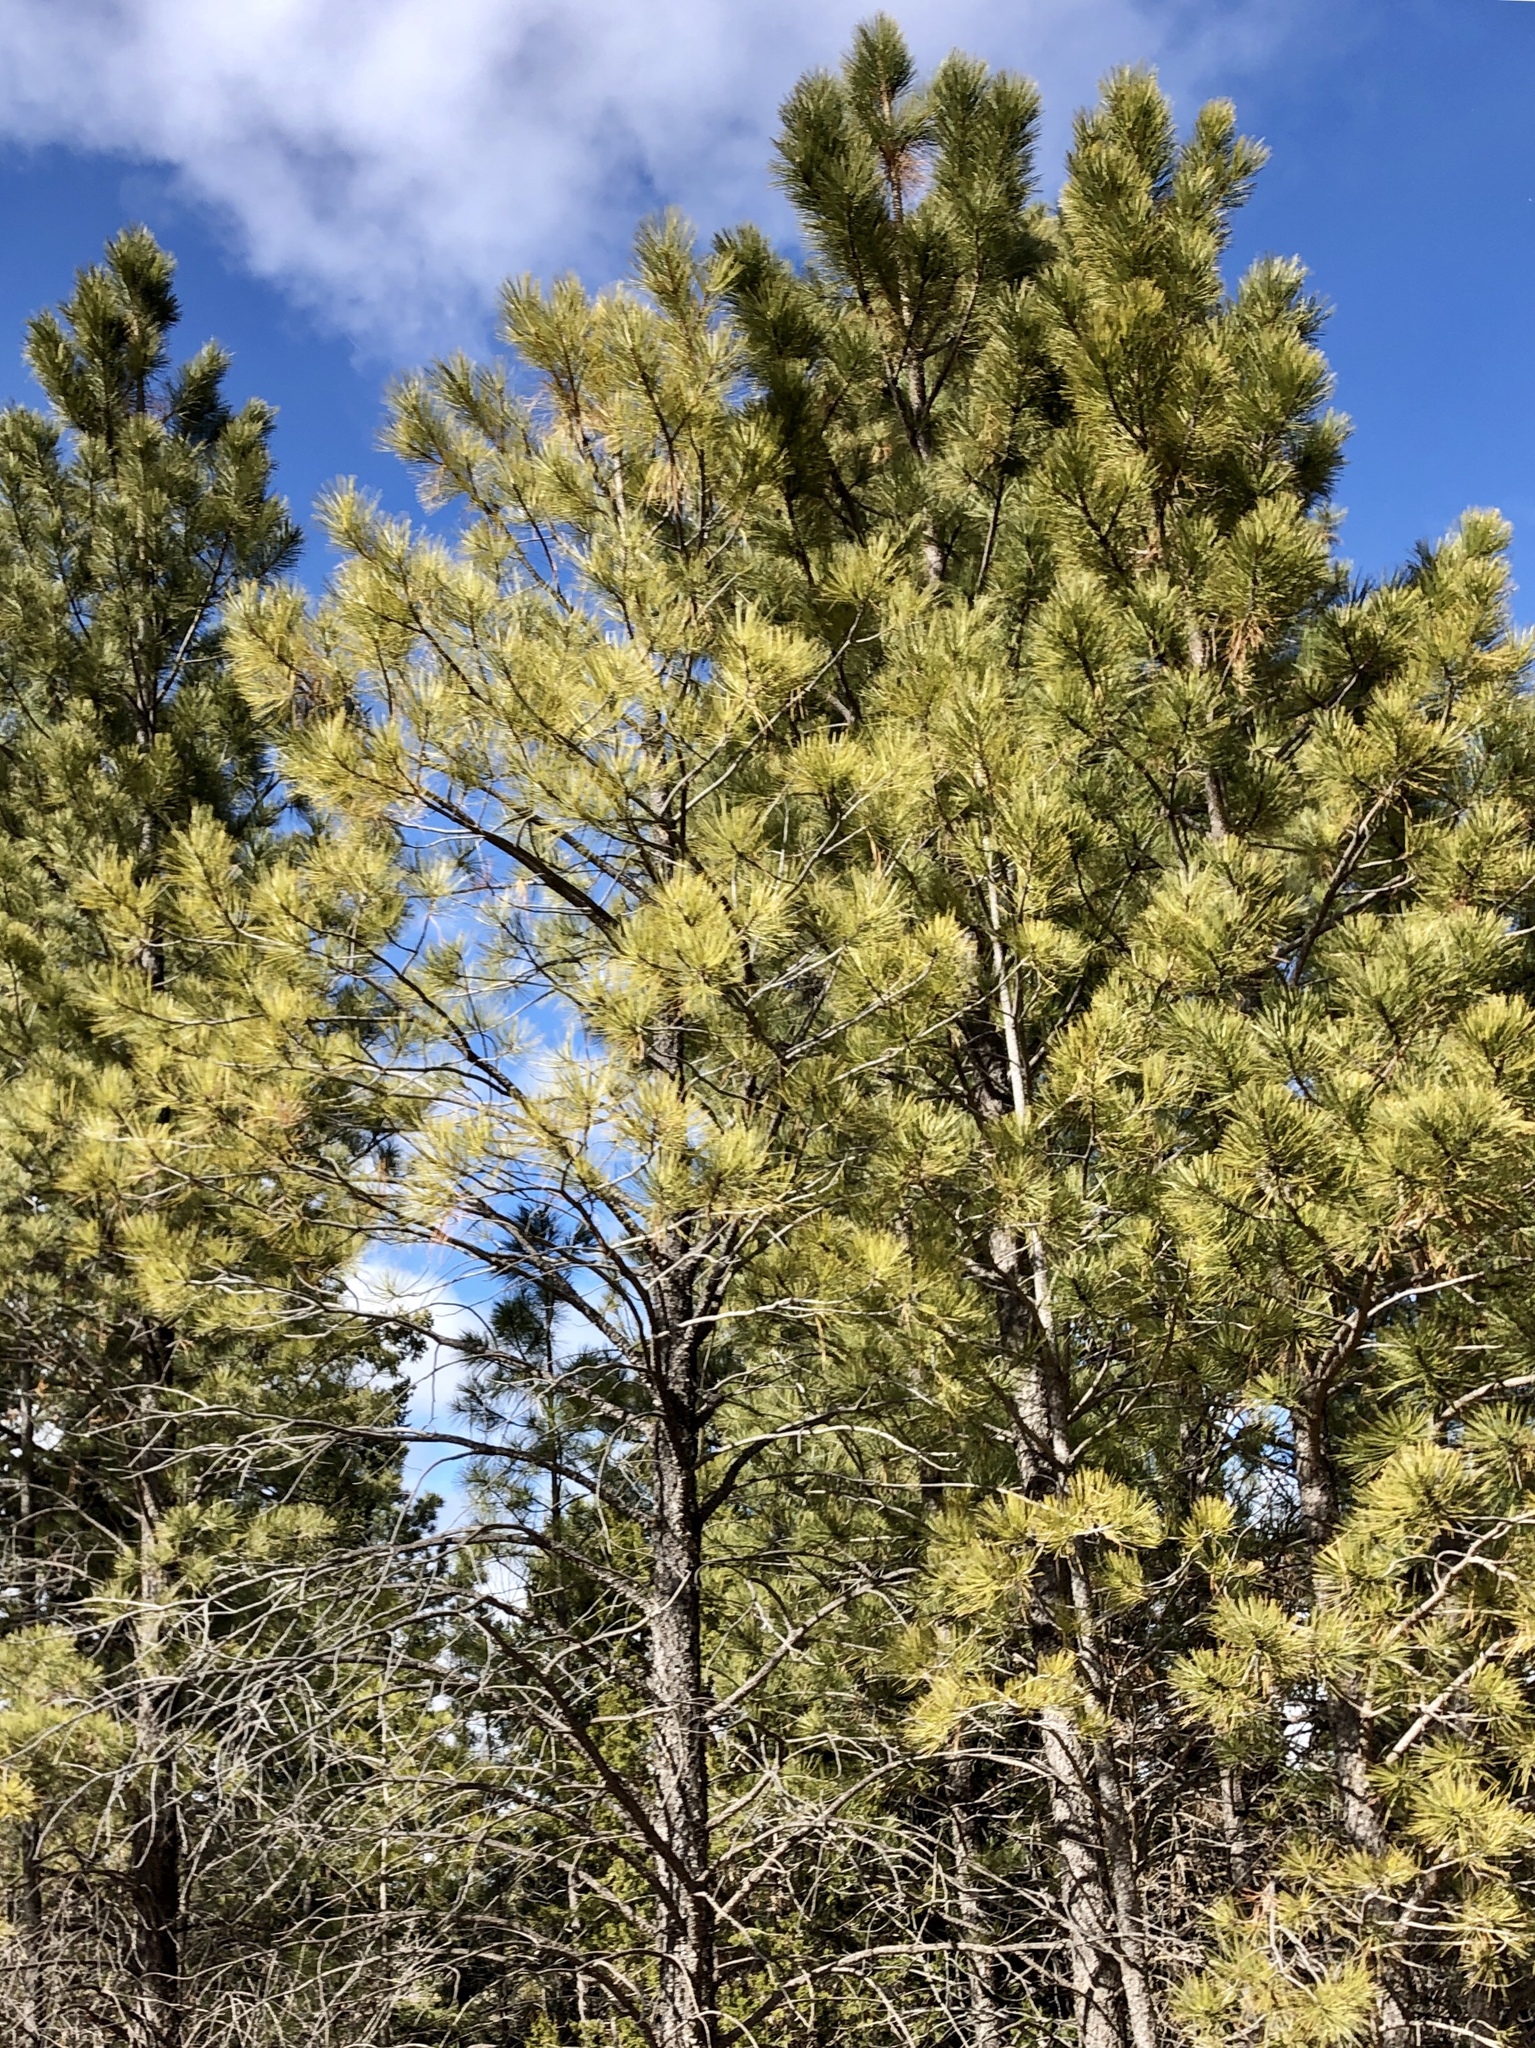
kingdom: Plantae
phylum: Tracheophyta
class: Pinopsida
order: Pinales
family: Pinaceae
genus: Pinus
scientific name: Pinus ponderosa
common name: Western yellow-pine
